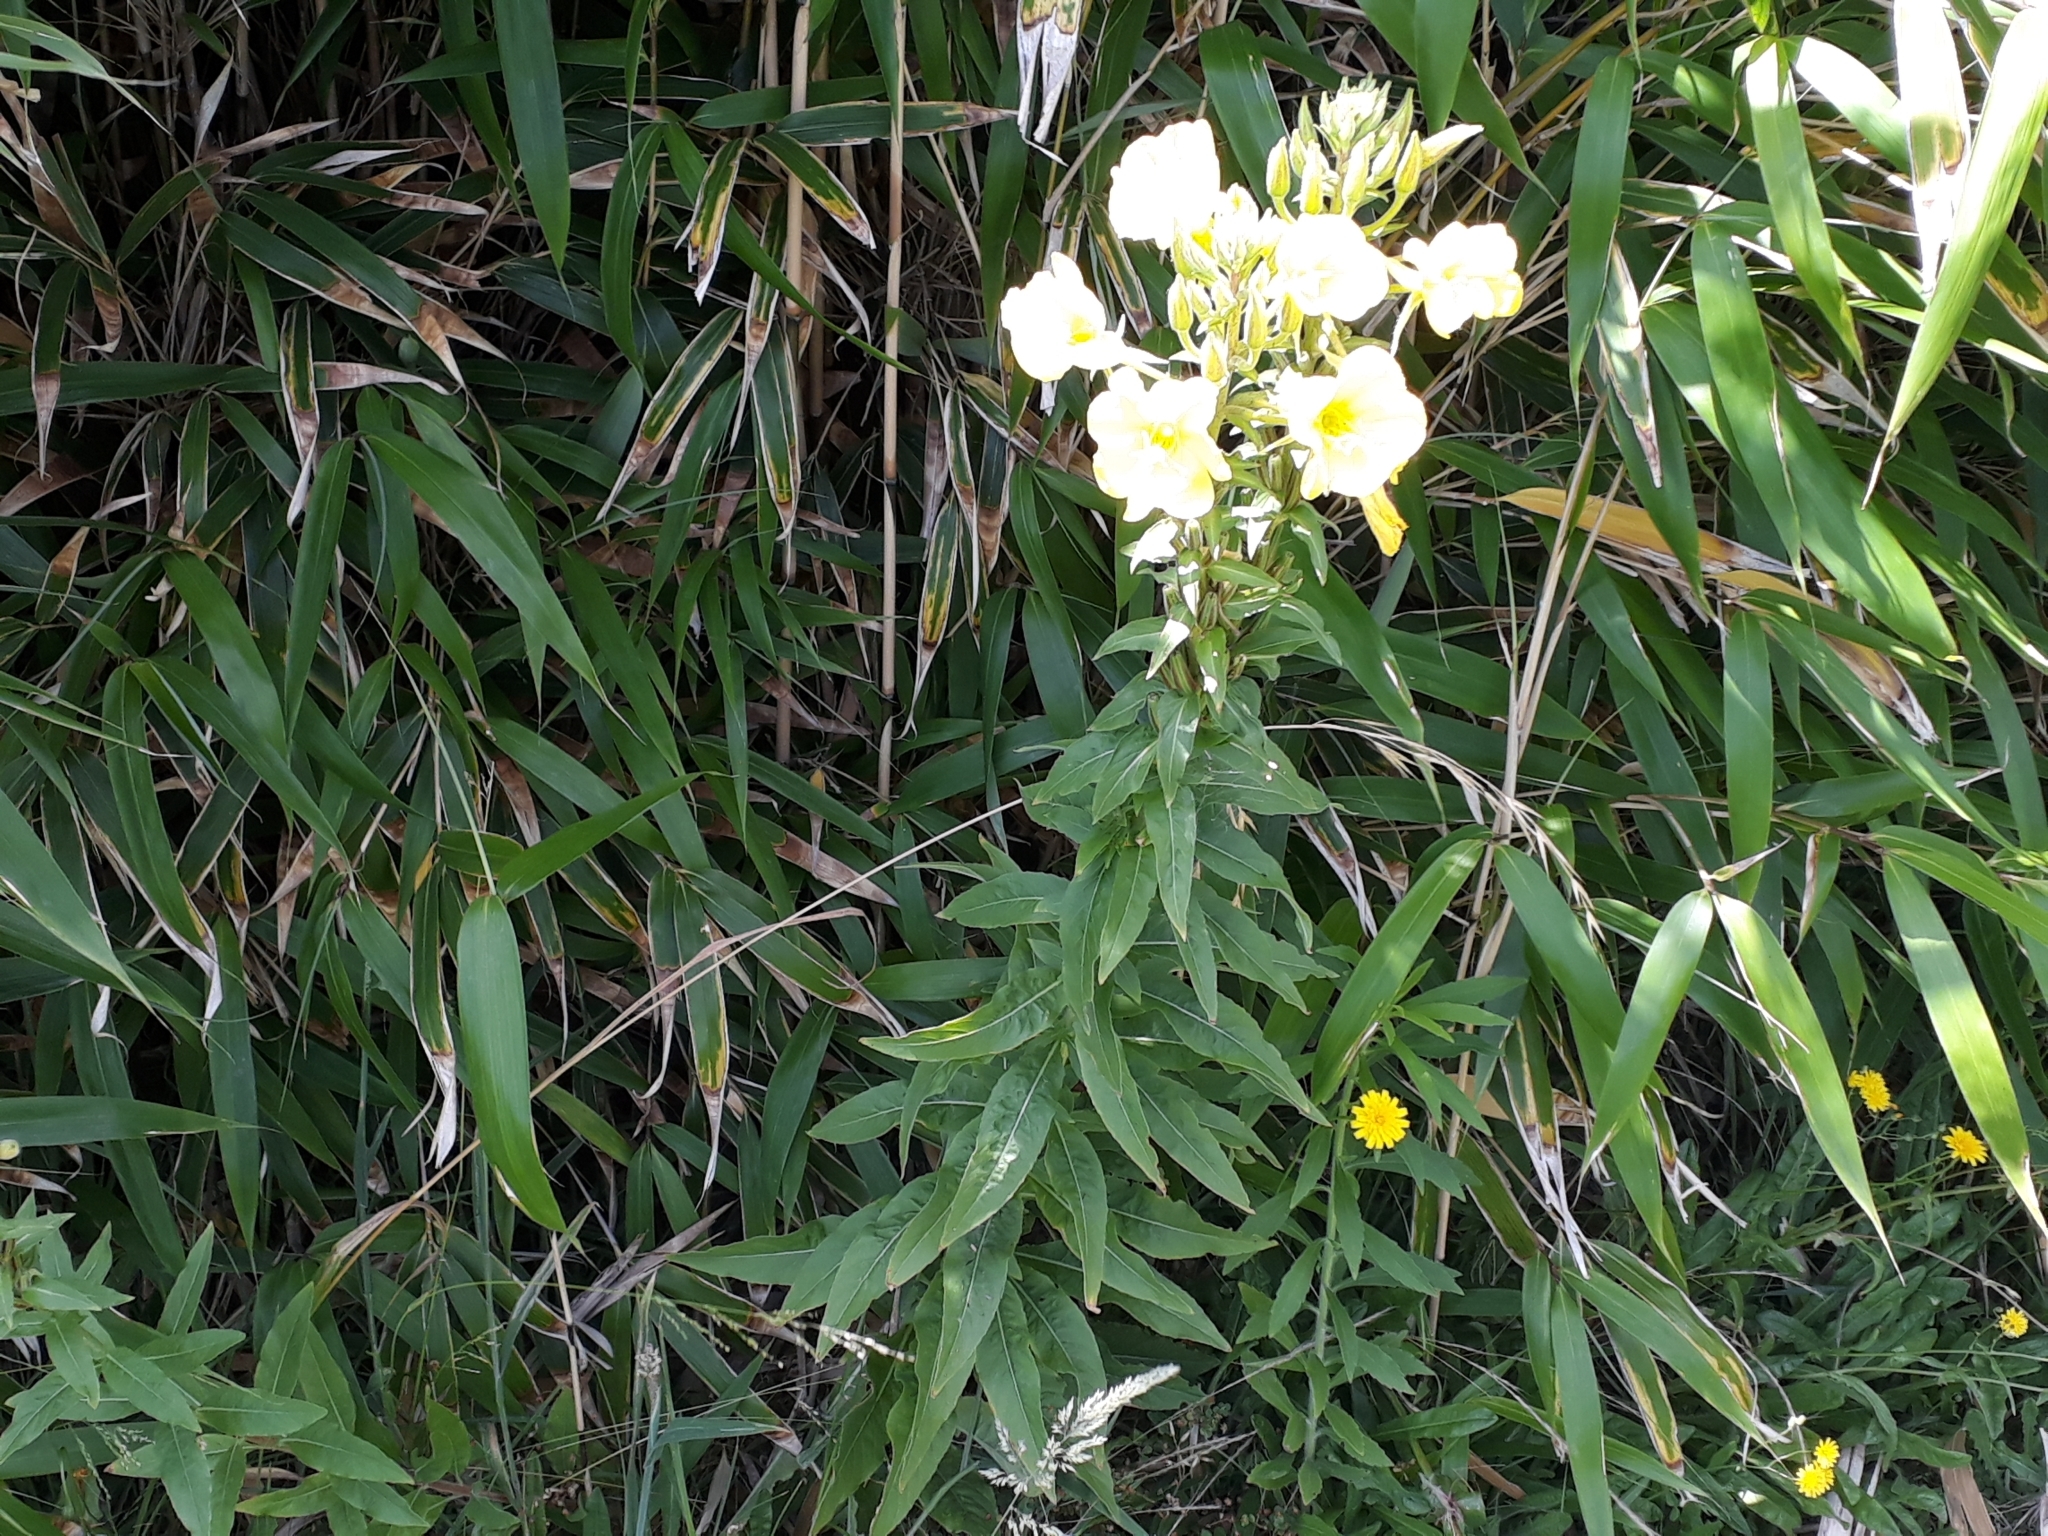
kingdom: Plantae
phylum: Tracheophyta
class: Magnoliopsida
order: Myrtales
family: Onagraceae
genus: Oenothera
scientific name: Oenothera glazioviana
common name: Large-flowered evening-primrose
